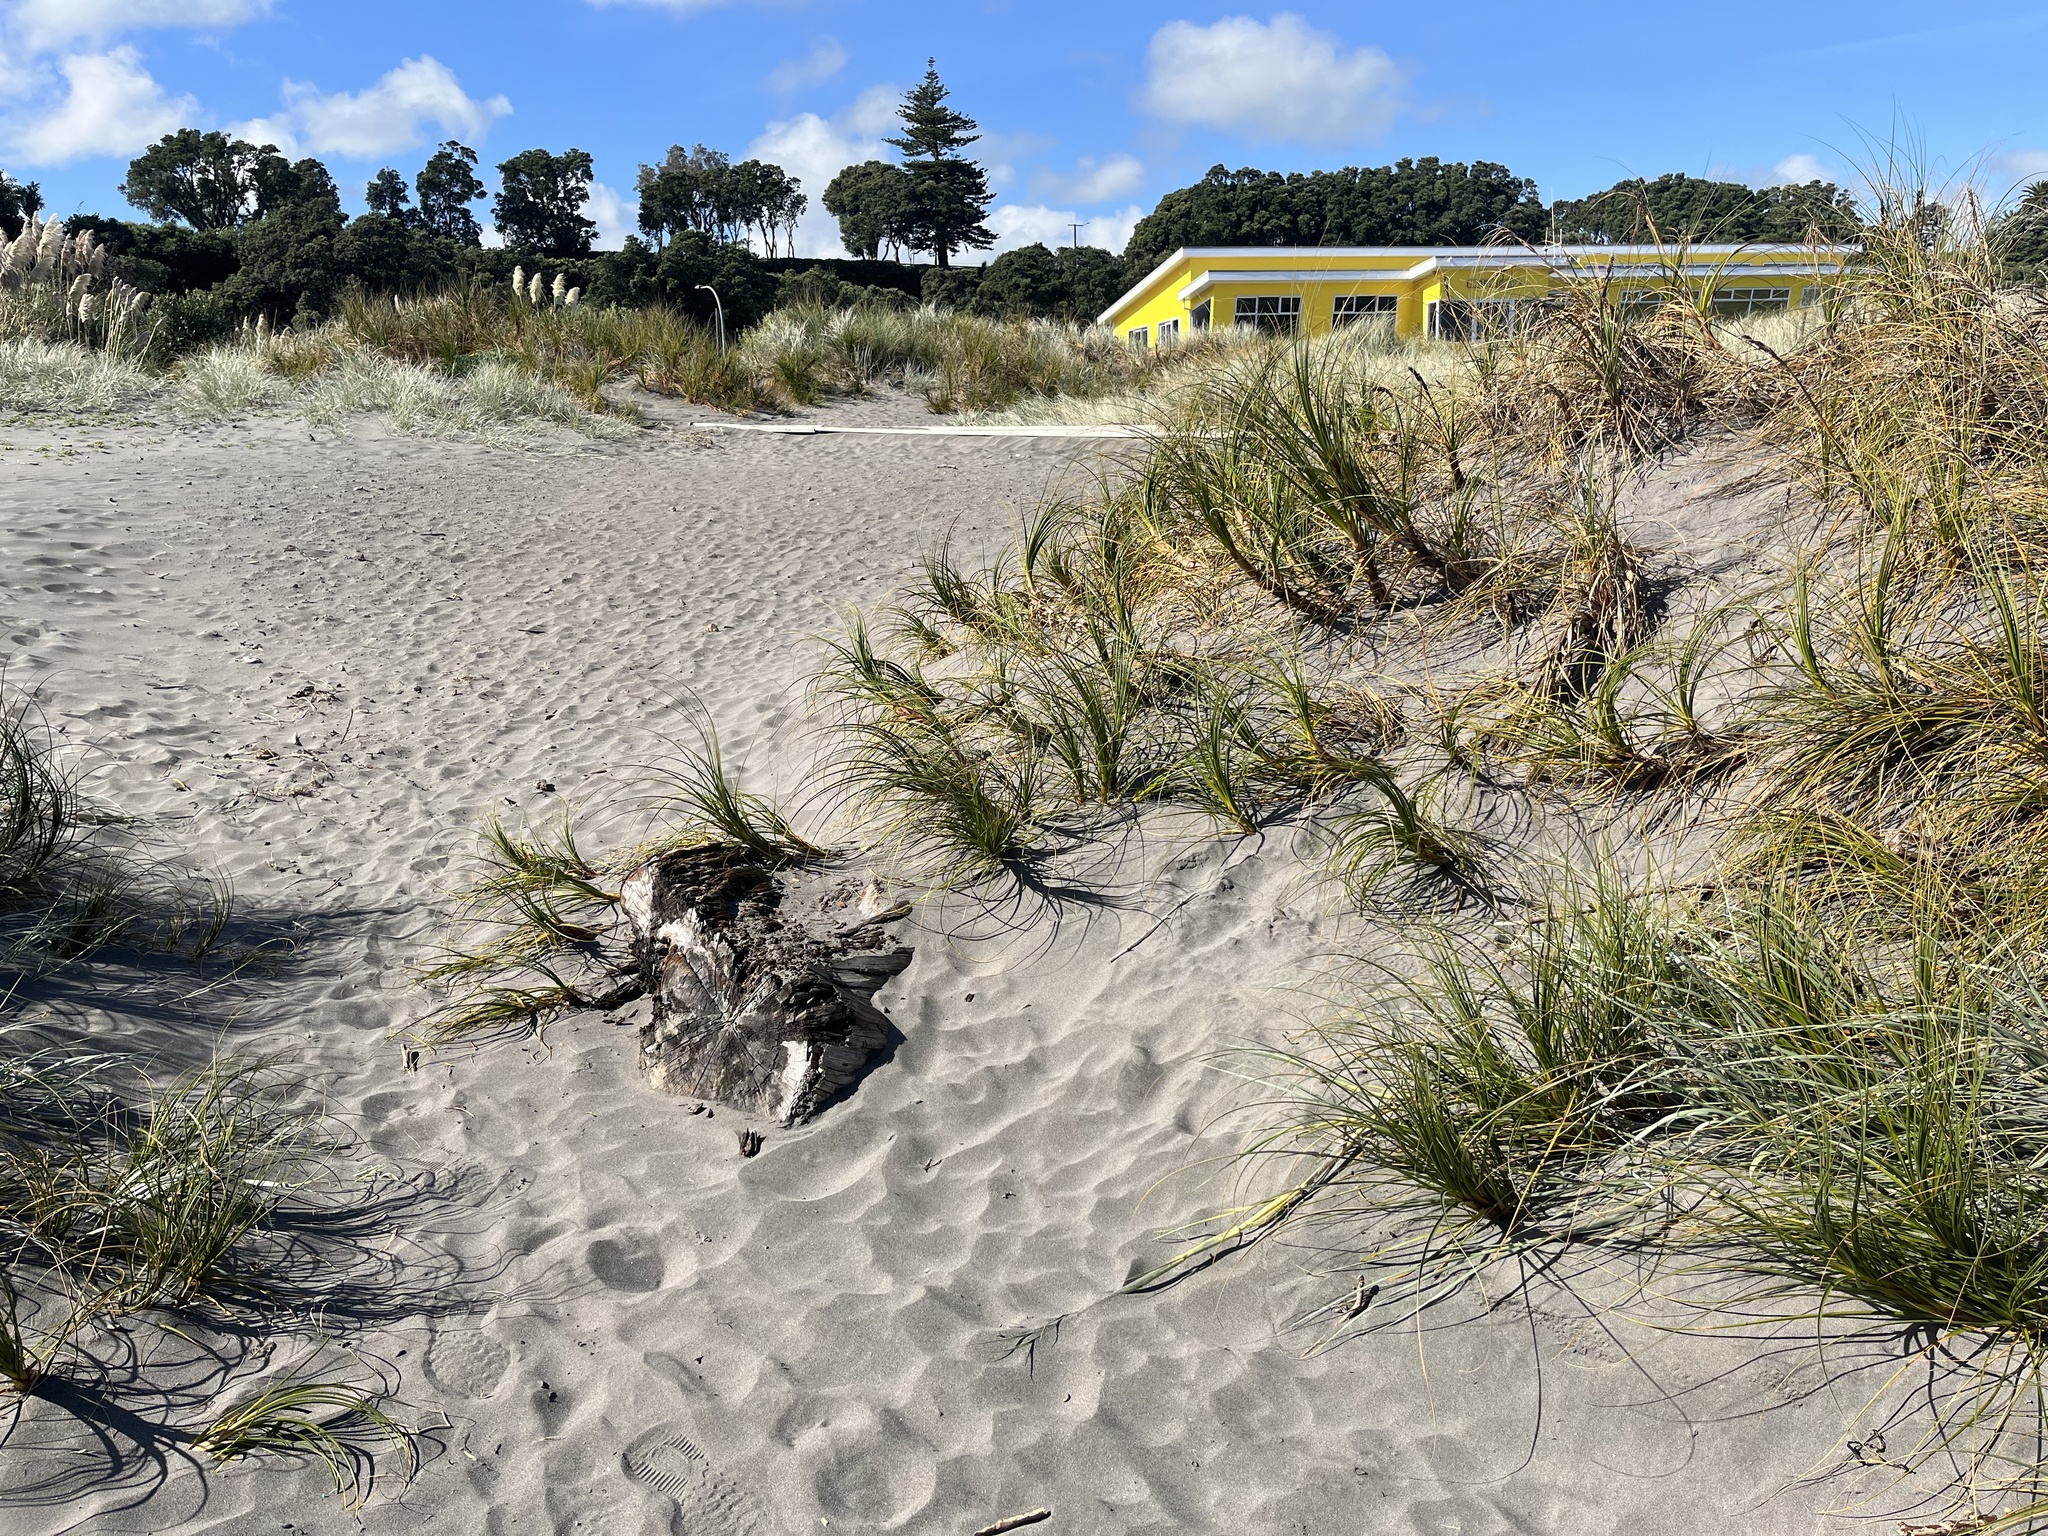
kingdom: Plantae
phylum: Tracheophyta
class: Liliopsida
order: Poales
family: Cyperaceae
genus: Ficinia
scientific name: Ficinia spiralis
